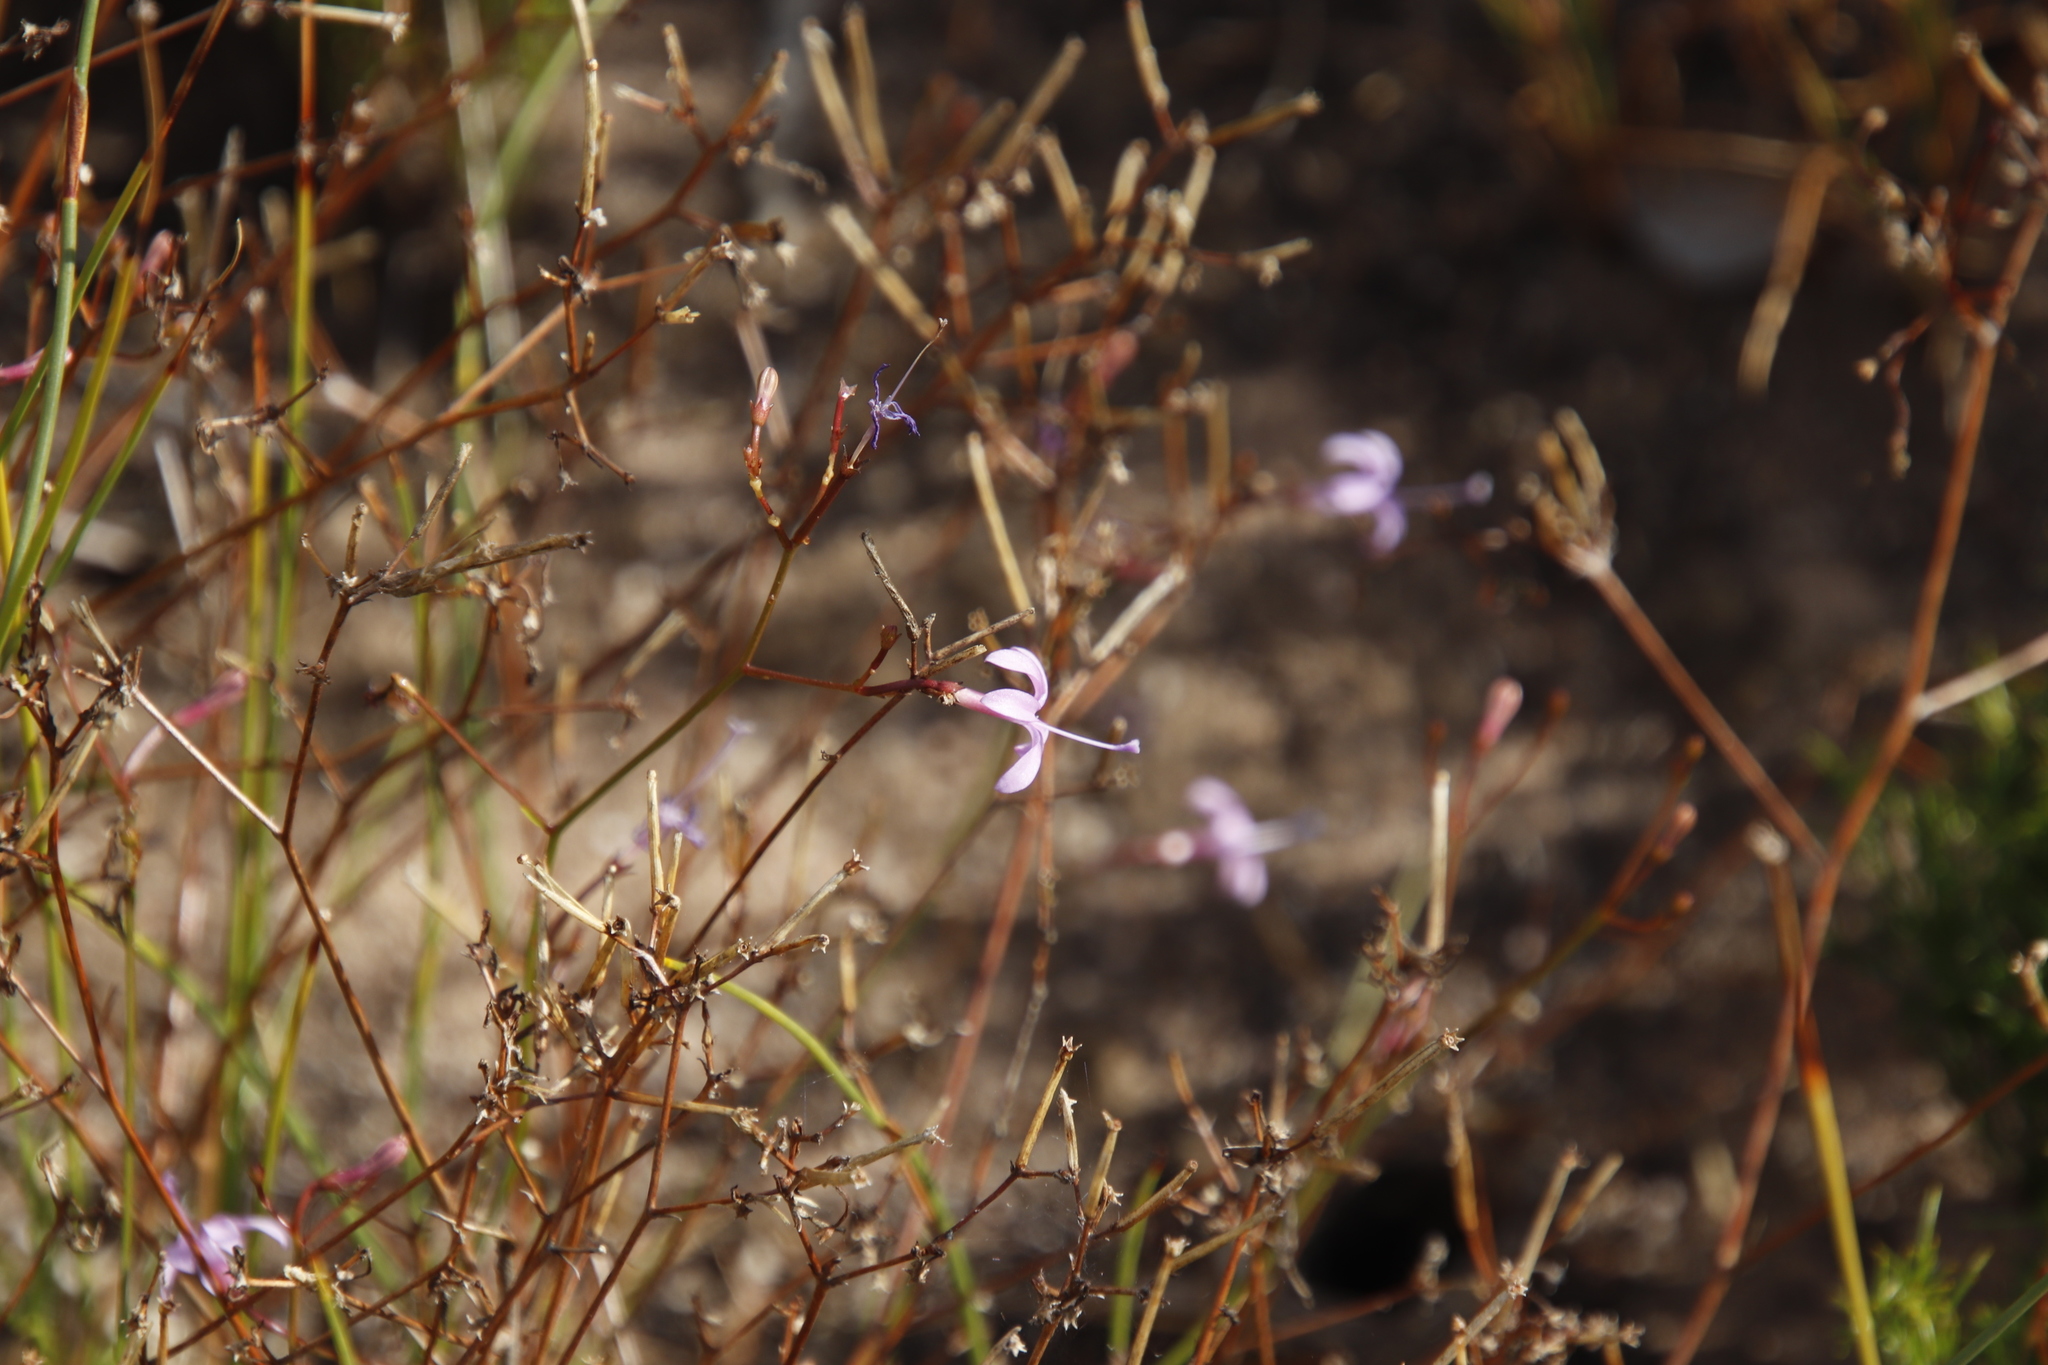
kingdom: Plantae
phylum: Tracheophyta
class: Magnoliopsida
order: Asterales
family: Campanulaceae
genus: Prismatocarpus
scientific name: Prismatocarpus diffusus
